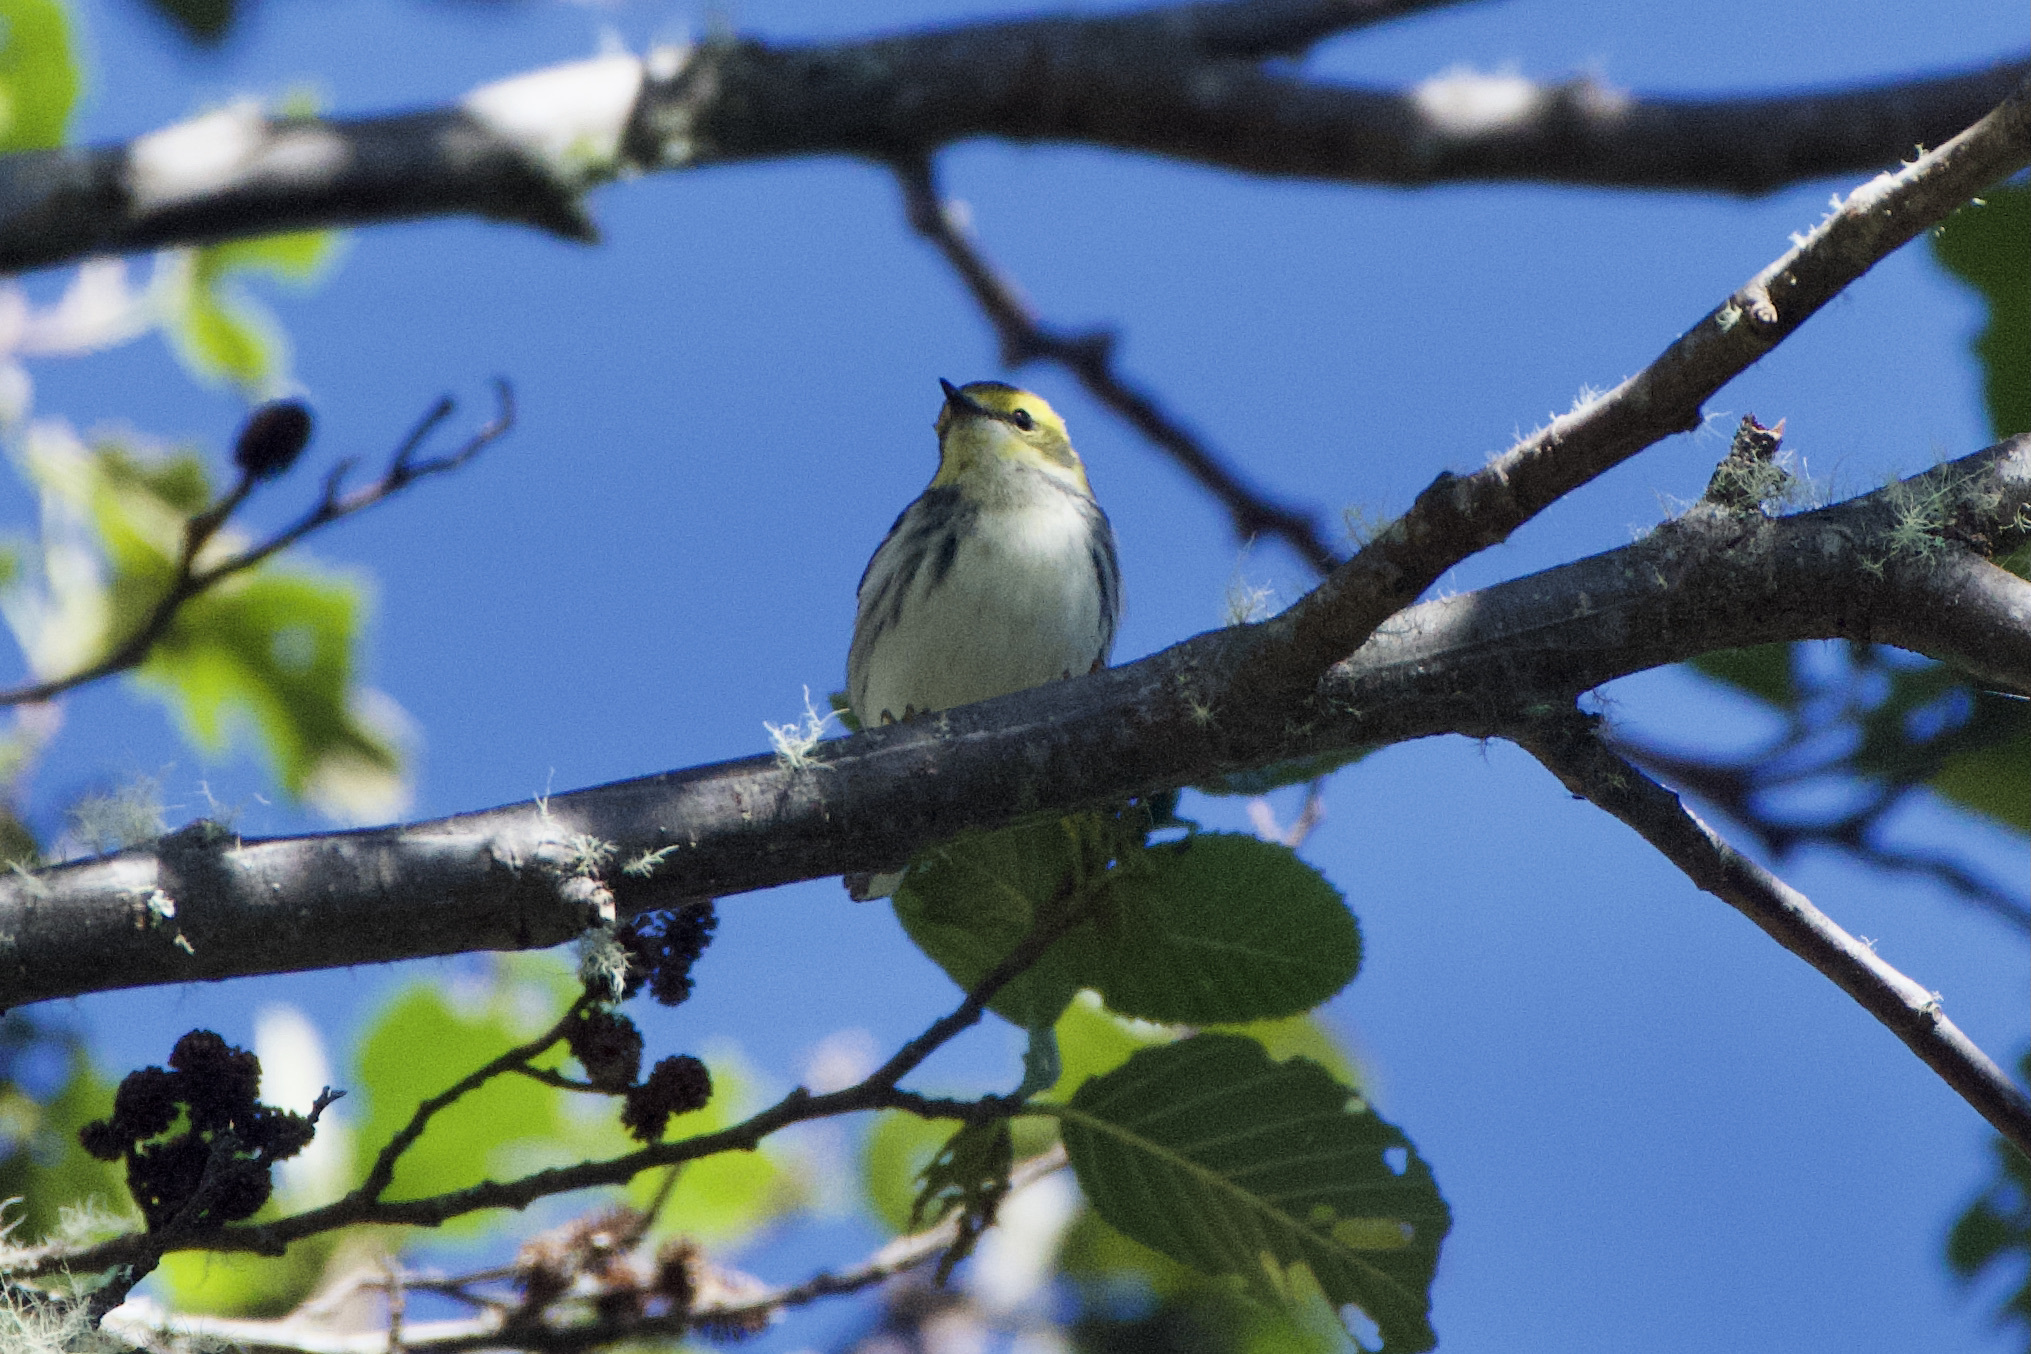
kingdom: Animalia
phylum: Chordata
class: Aves
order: Passeriformes
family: Parulidae
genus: Setophaga
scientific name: Setophaga virens
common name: Black-throated green warbler
